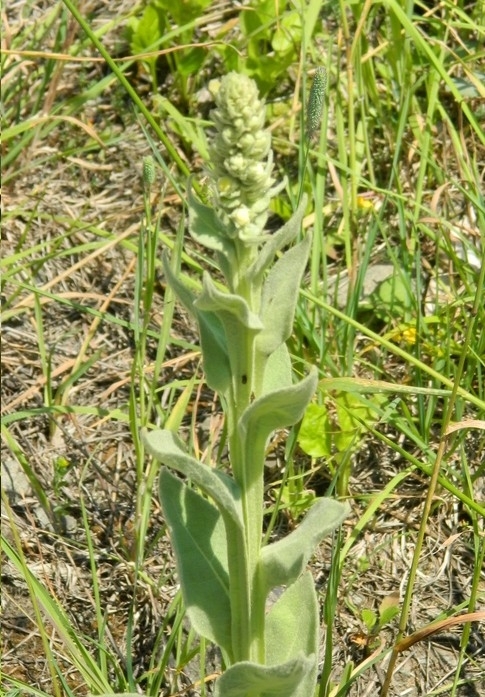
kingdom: Plantae
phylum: Tracheophyta
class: Magnoliopsida
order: Lamiales
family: Scrophulariaceae
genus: Verbascum
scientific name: Verbascum thapsus
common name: Common mullein
